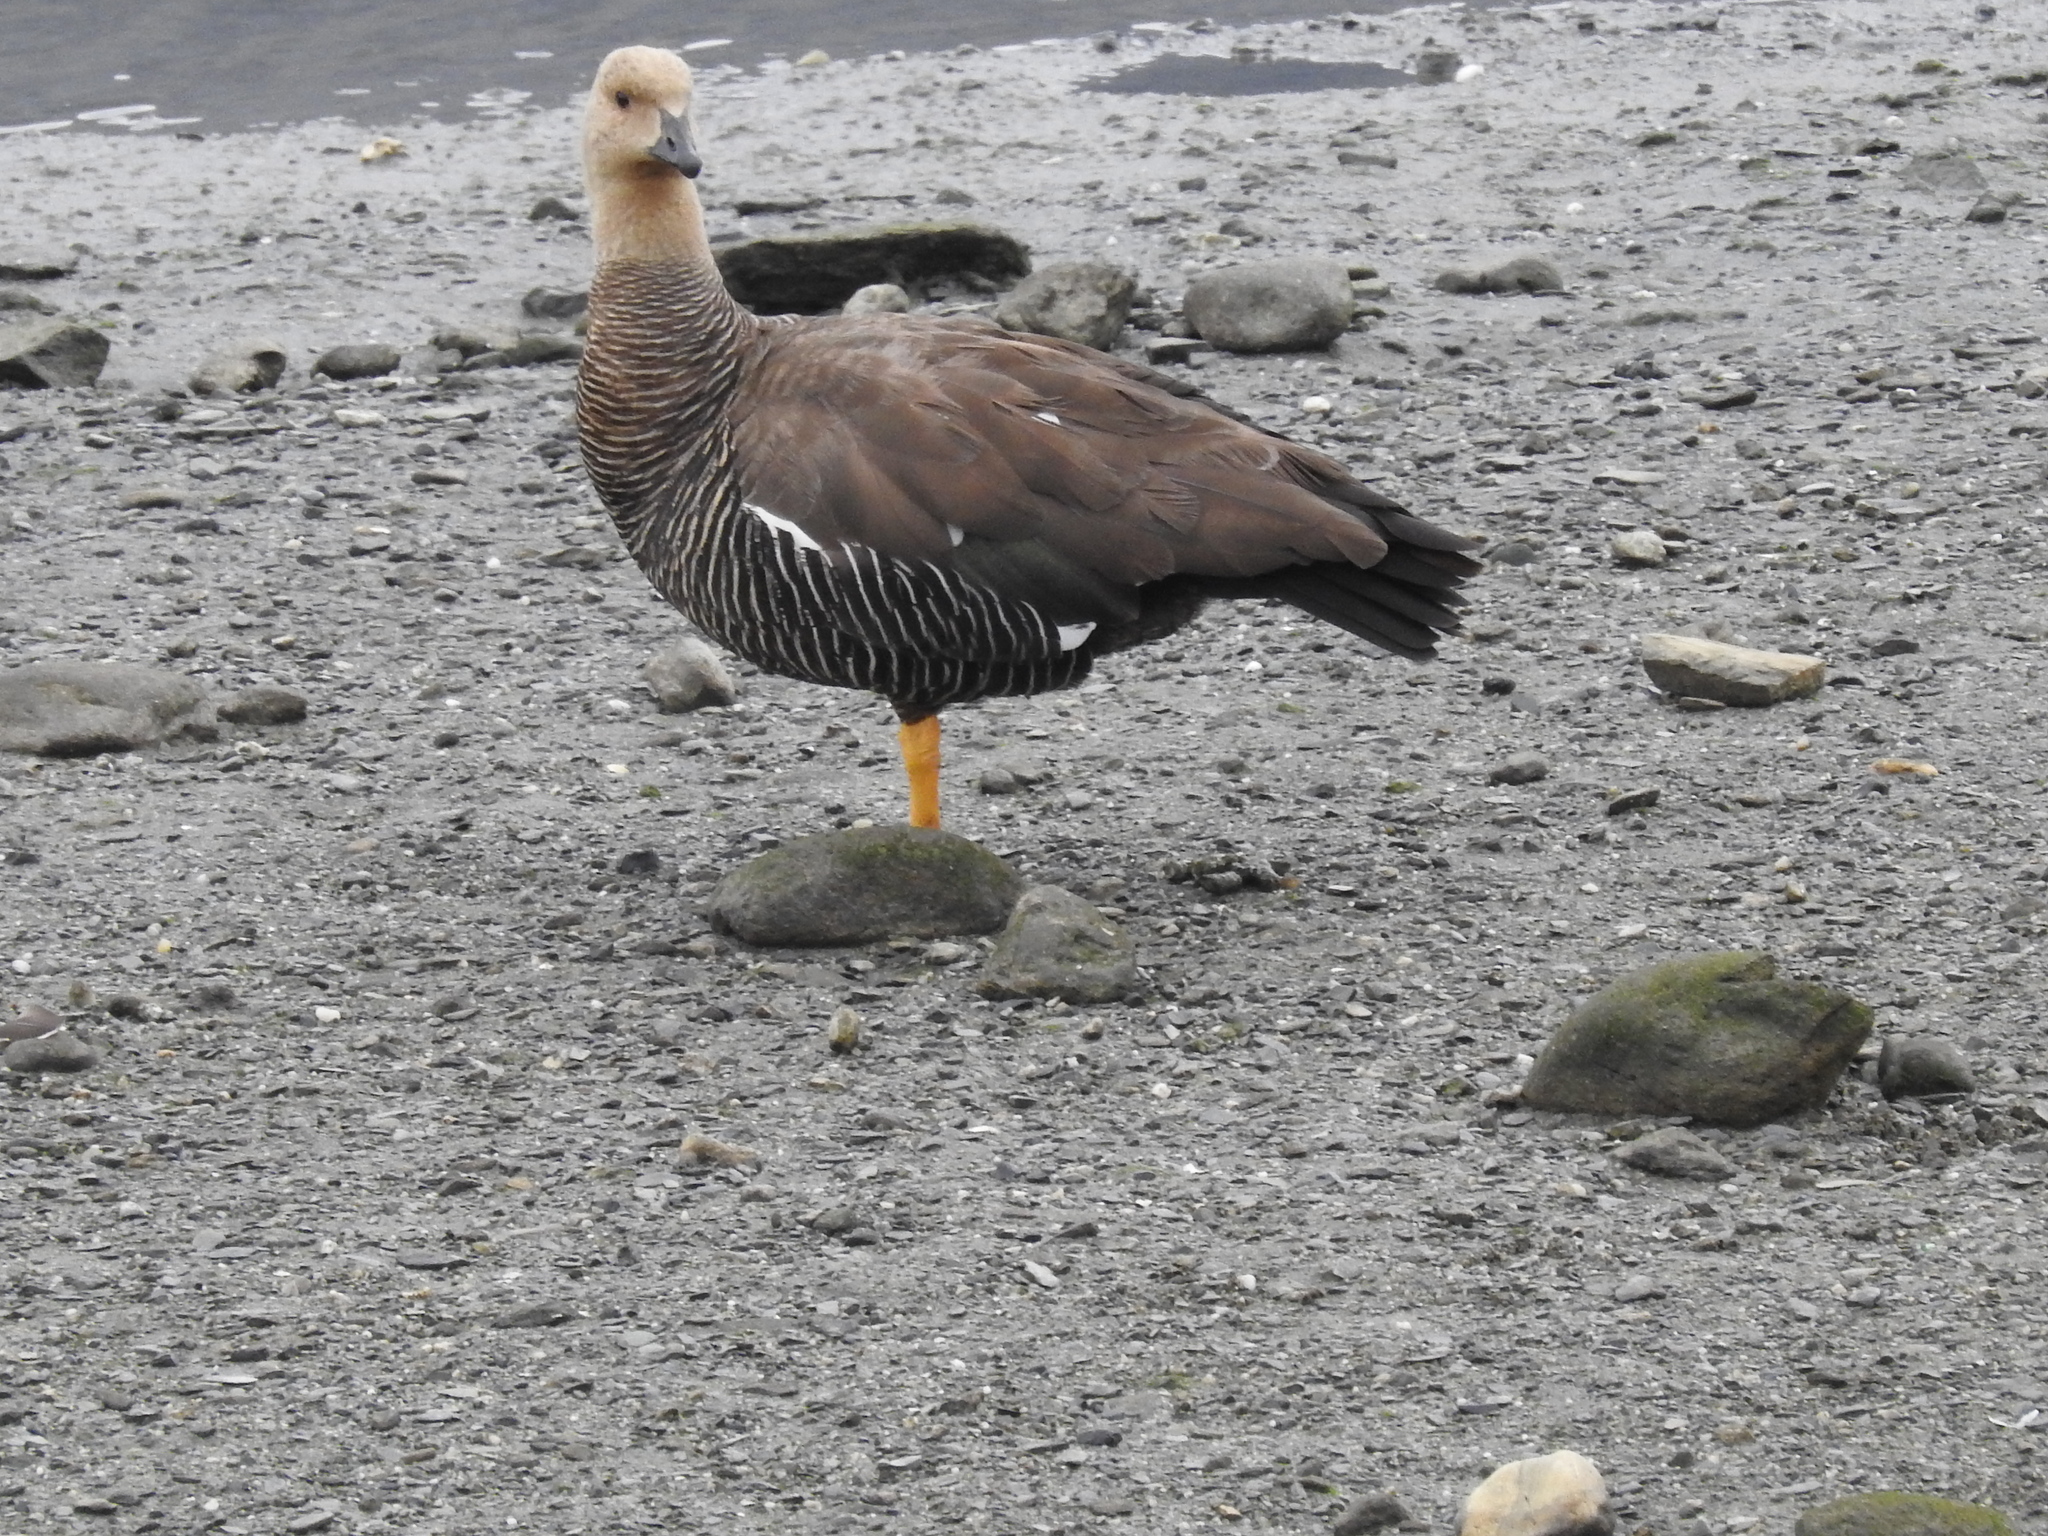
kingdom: Animalia
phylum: Chordata
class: Aves
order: Anseriformes
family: Anatidae
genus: Chloephaga
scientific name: Chloephaga picta
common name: Upland goose
